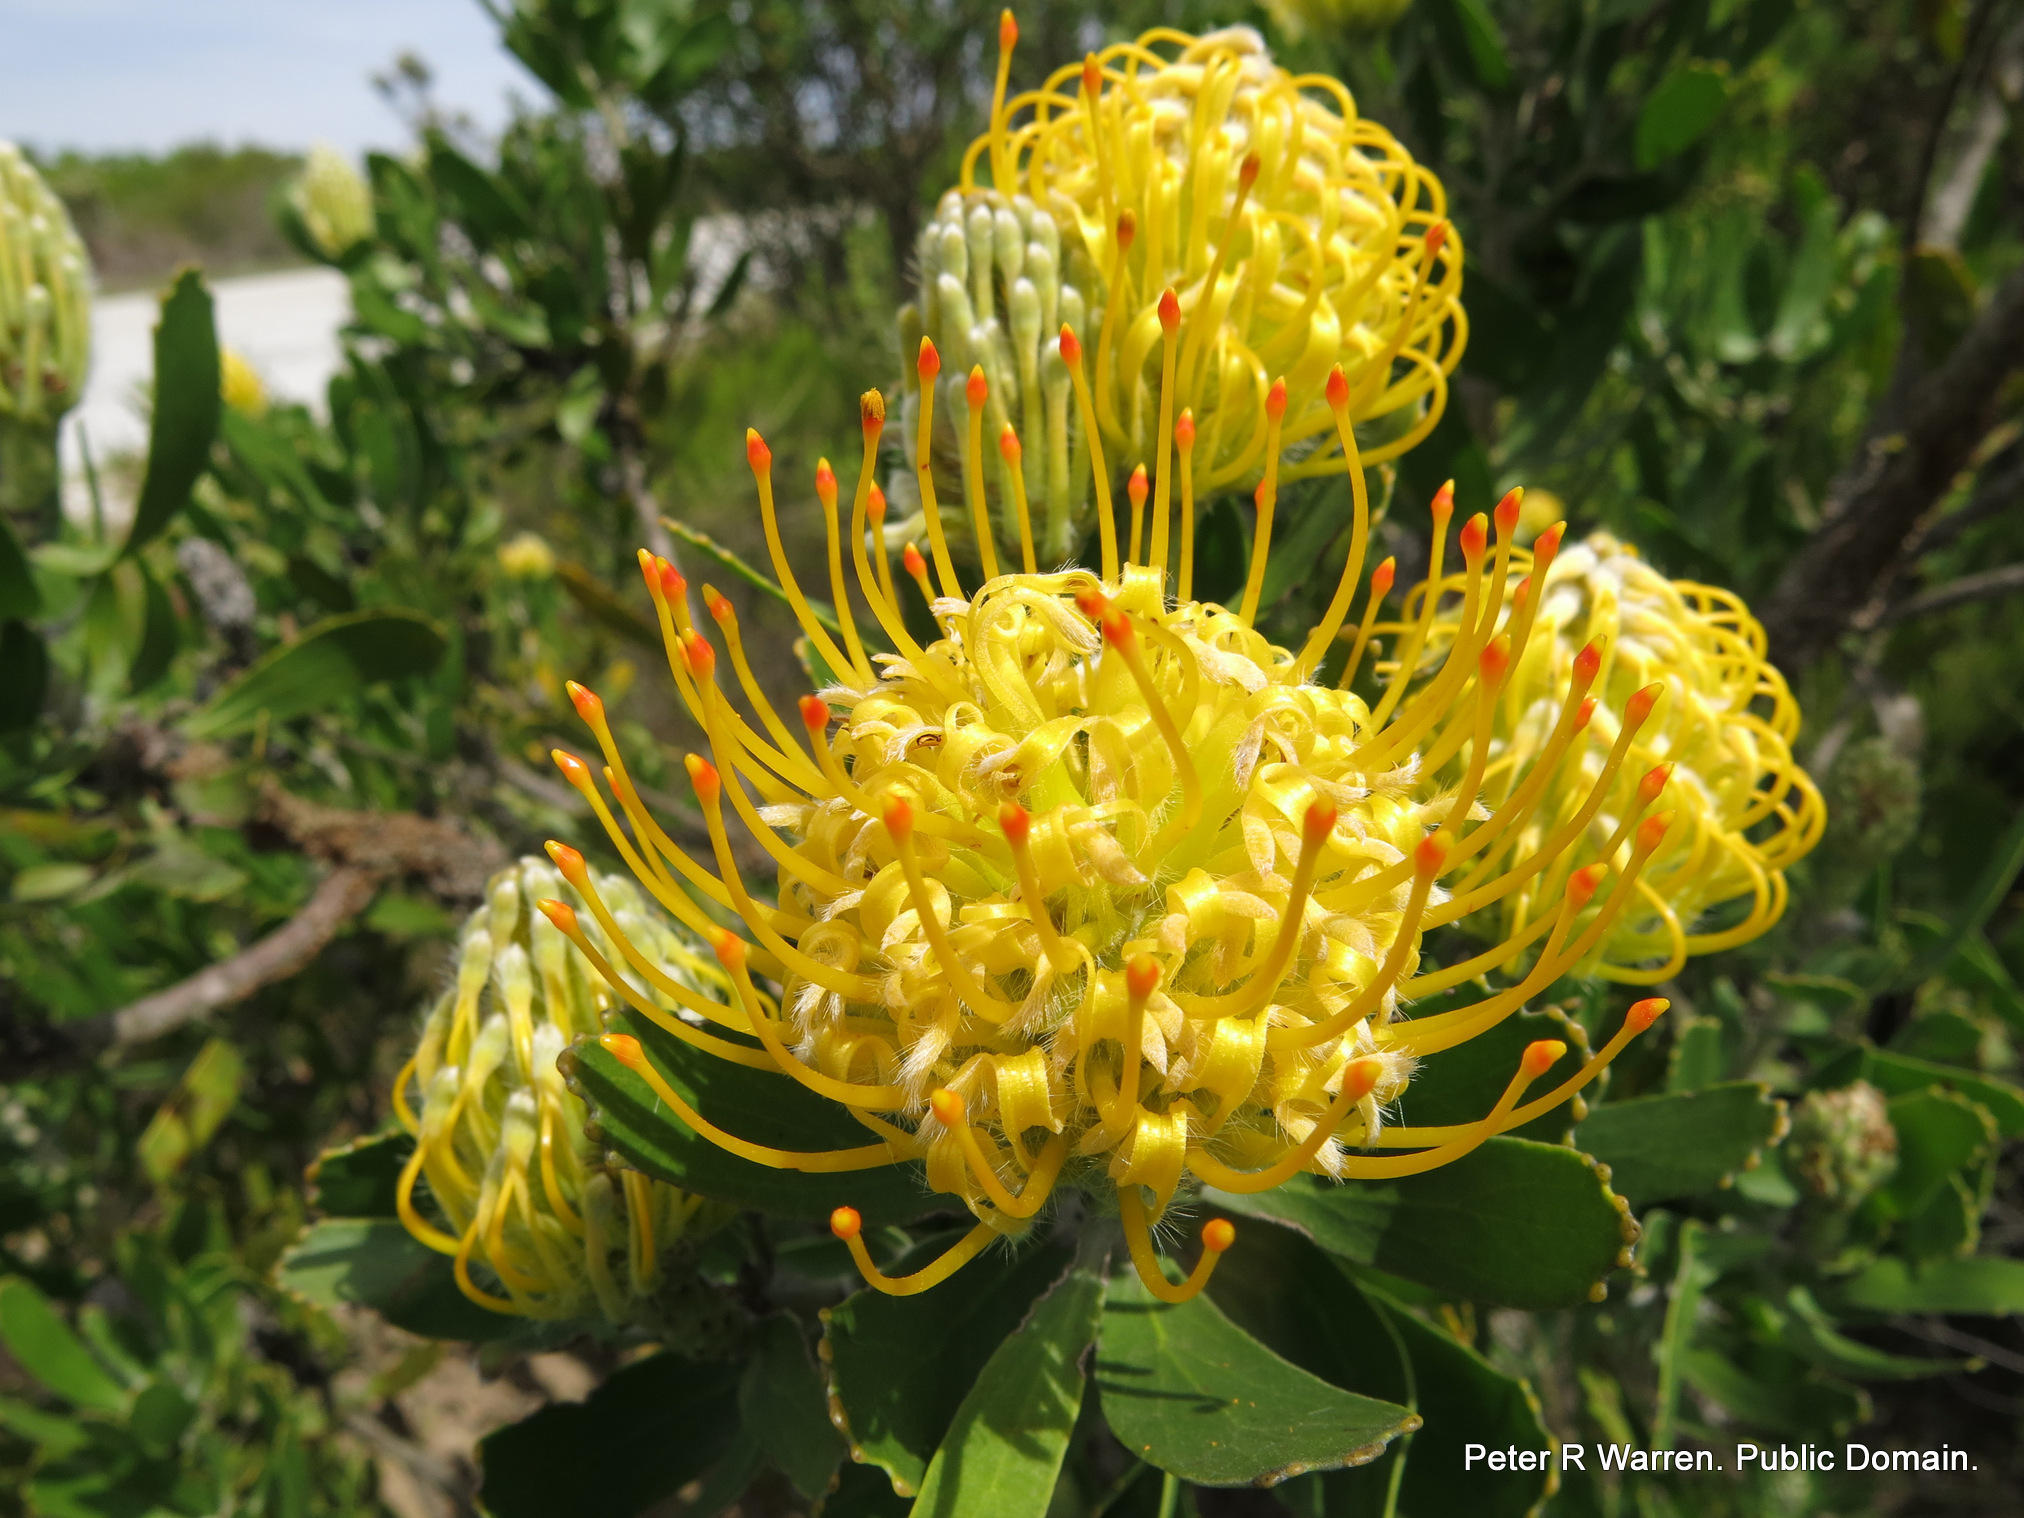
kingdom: Plantae
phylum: Tracheophyta
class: Magnoliopsida
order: Proteales
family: Proteaceae
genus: Leucospermum
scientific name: Leucospermum cuneiforme
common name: Common pincushion
